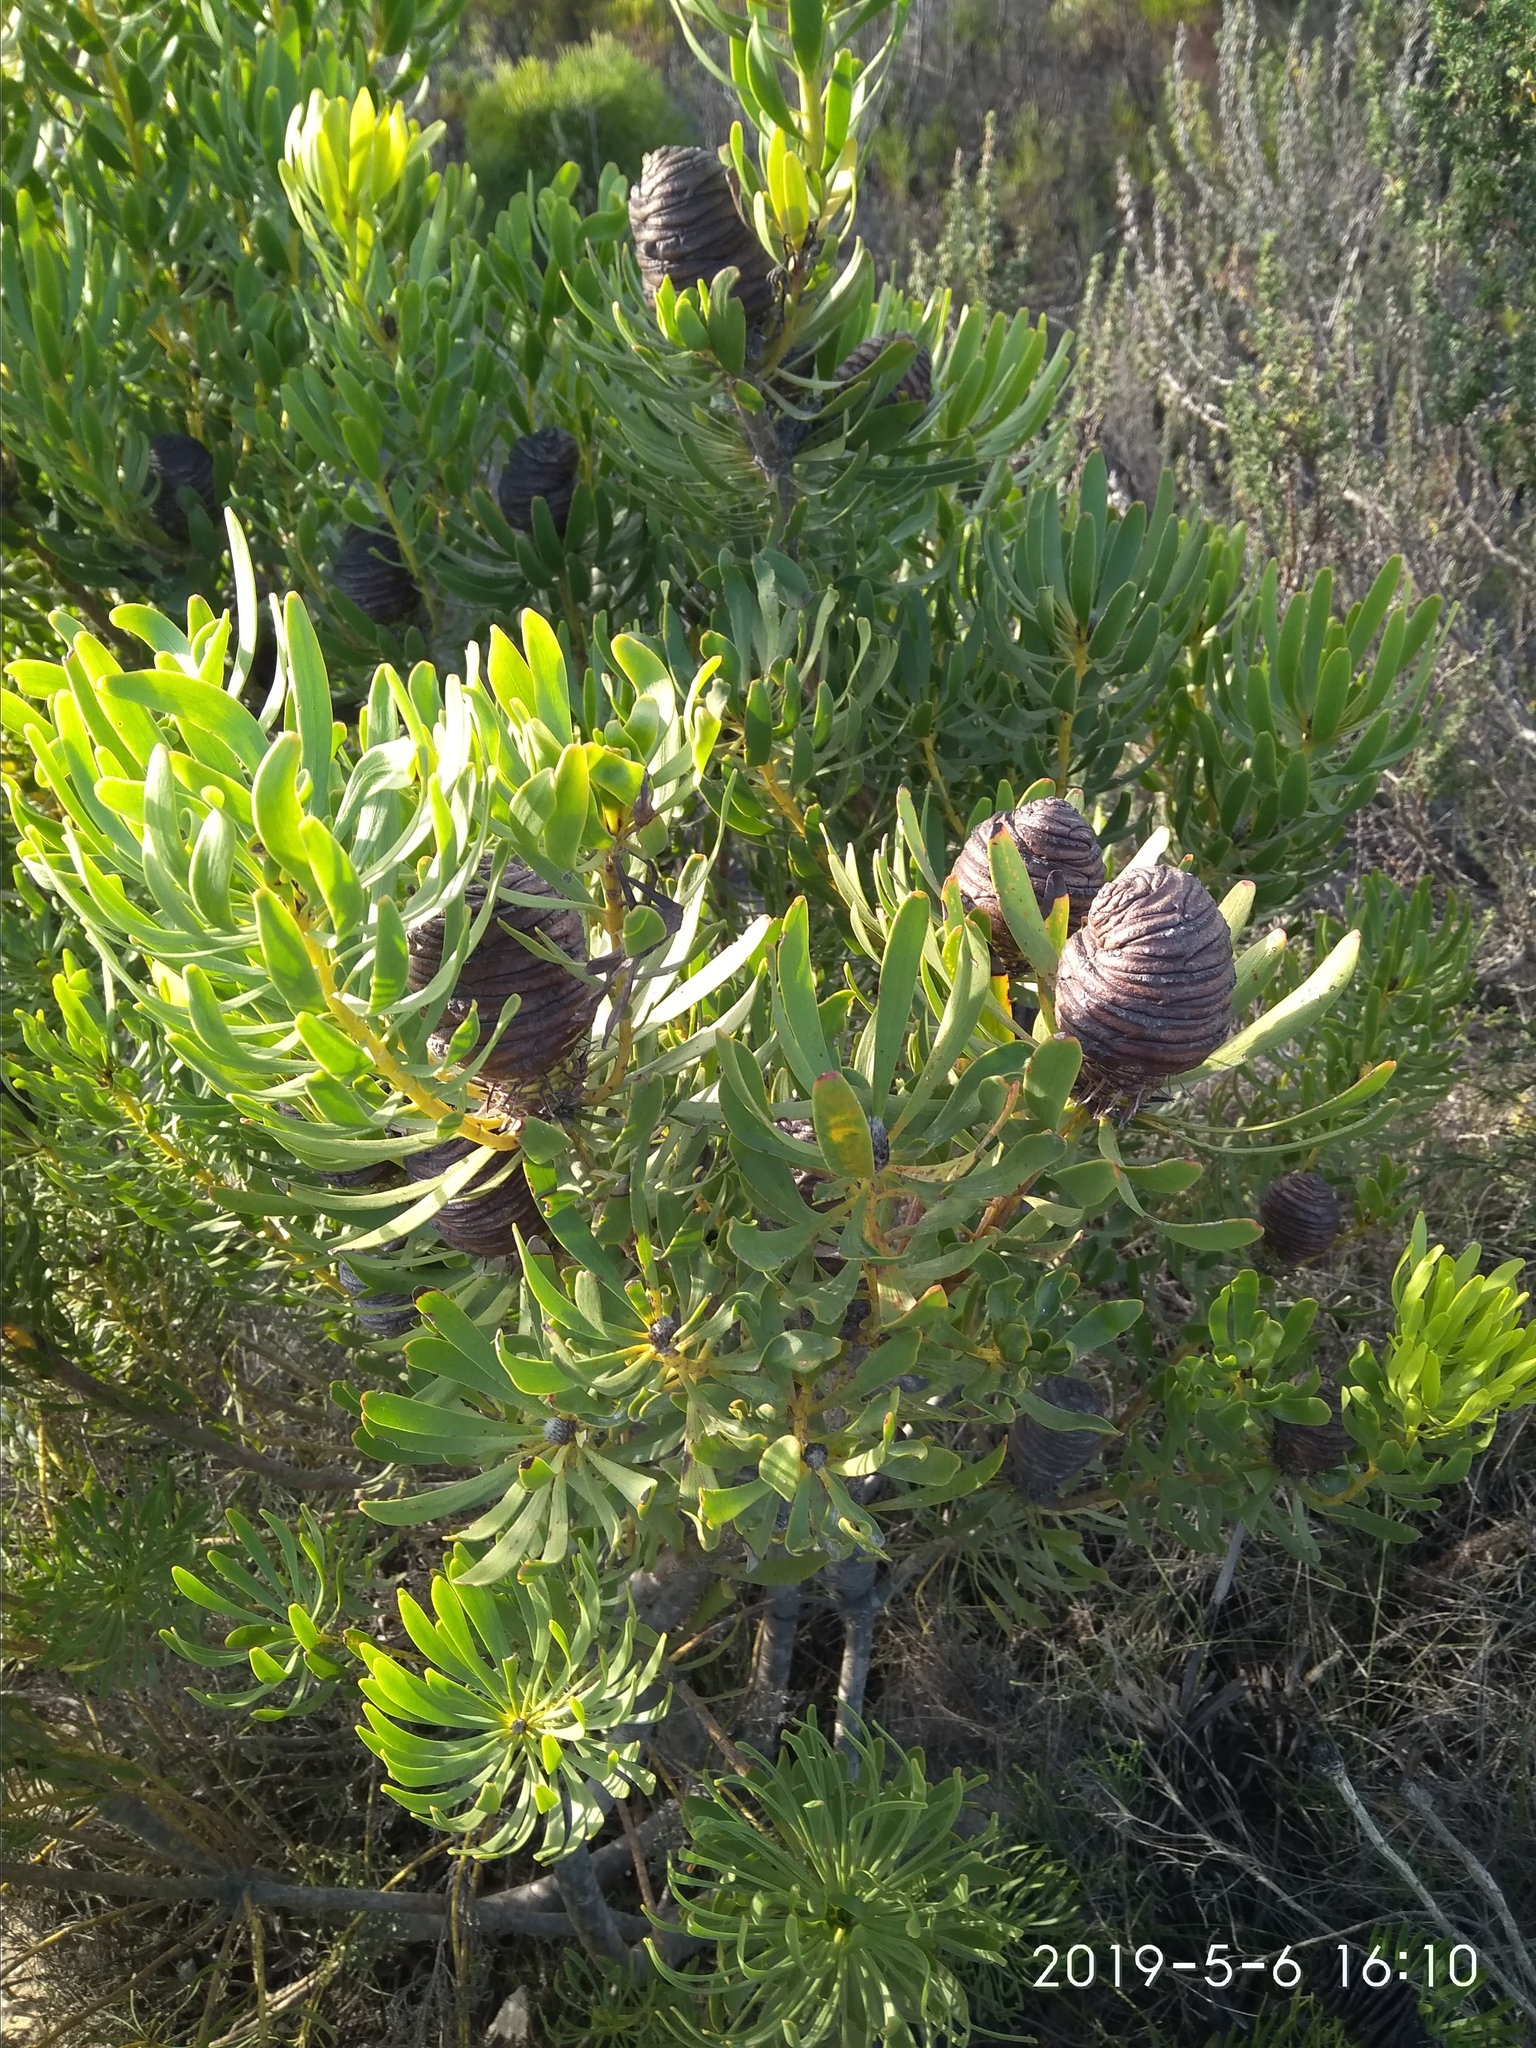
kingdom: Plantae
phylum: Tracheophyta
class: Magnoliopsida
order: Proteales
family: Proteaceae
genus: Leucadendron
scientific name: Leucadendron platyspermum
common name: Plate-seed conebush
